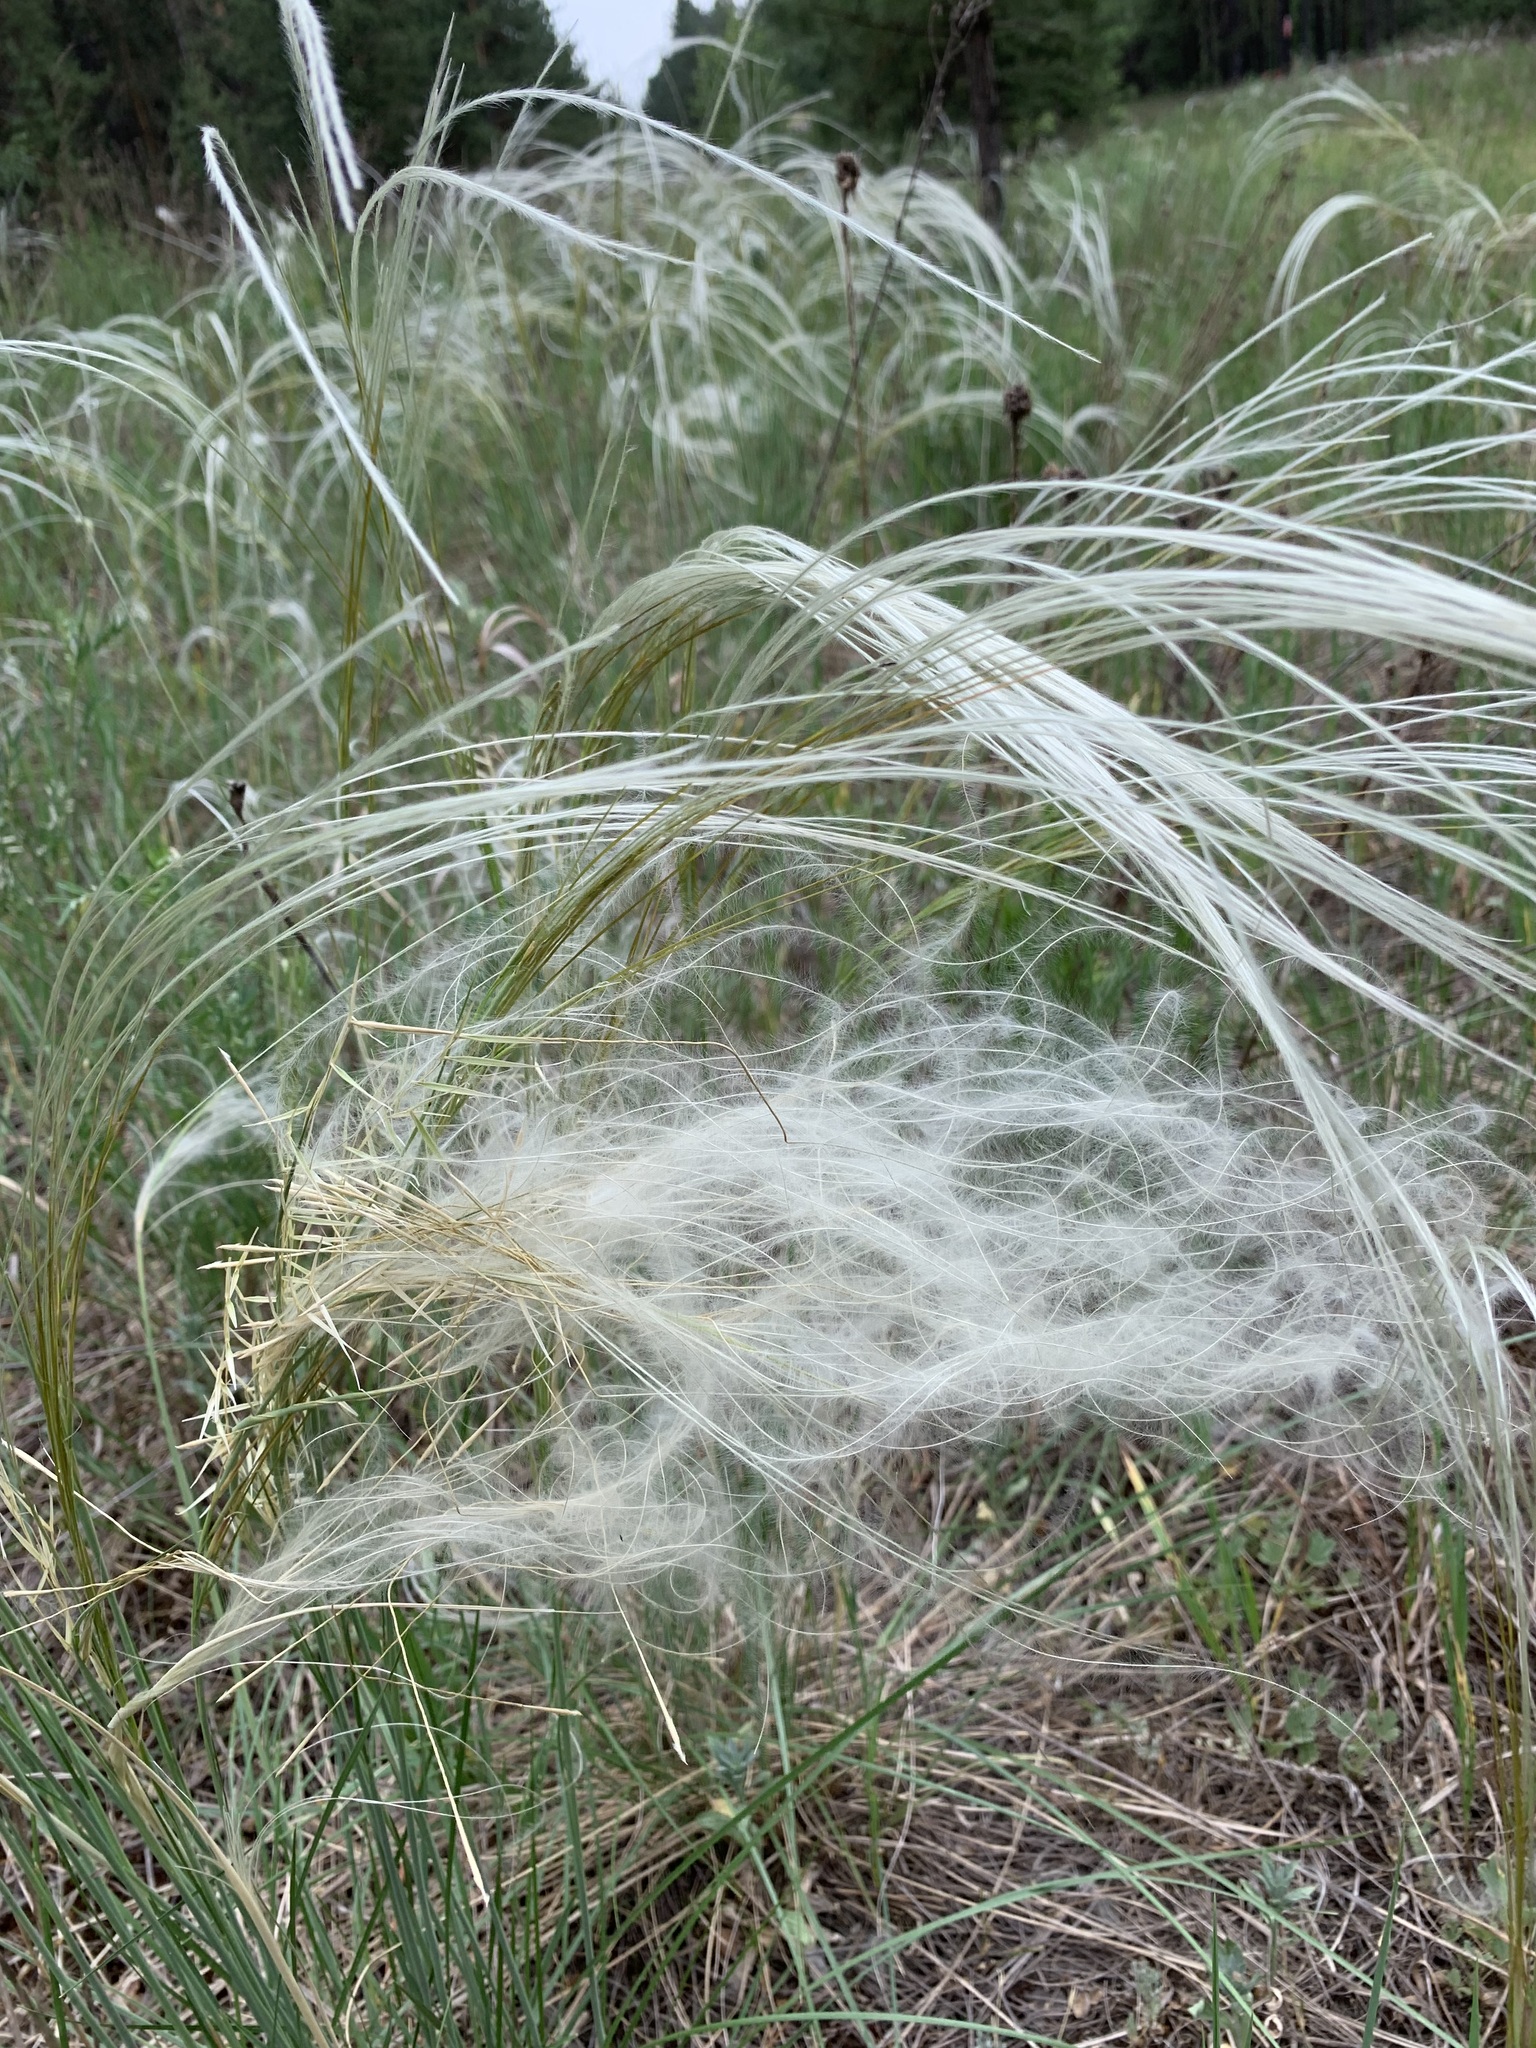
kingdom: Plantae
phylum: Tracheophyta
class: Liliopsida
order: Poales
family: Poaceae
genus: Stipa
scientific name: Stipa pennata
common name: European feather grass
